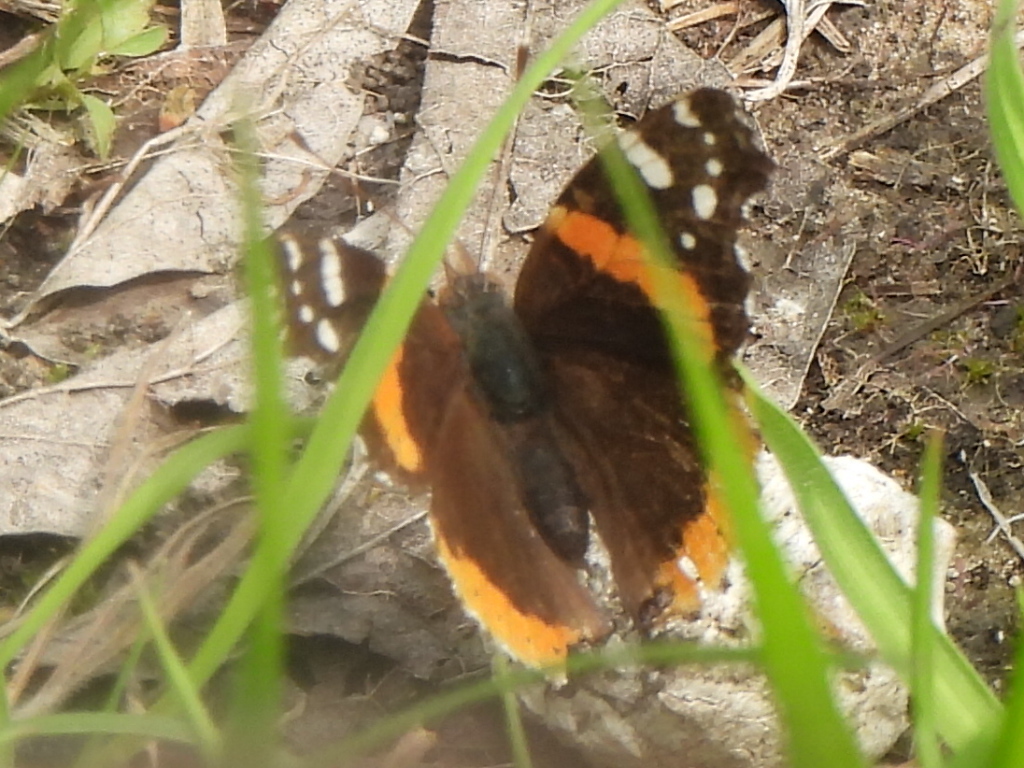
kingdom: Animalia
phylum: Arthropoda
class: Insecta
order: Lepidoptera
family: Nymphalidae
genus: Vanessa
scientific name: Vanessa atalanta
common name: Red admiral
